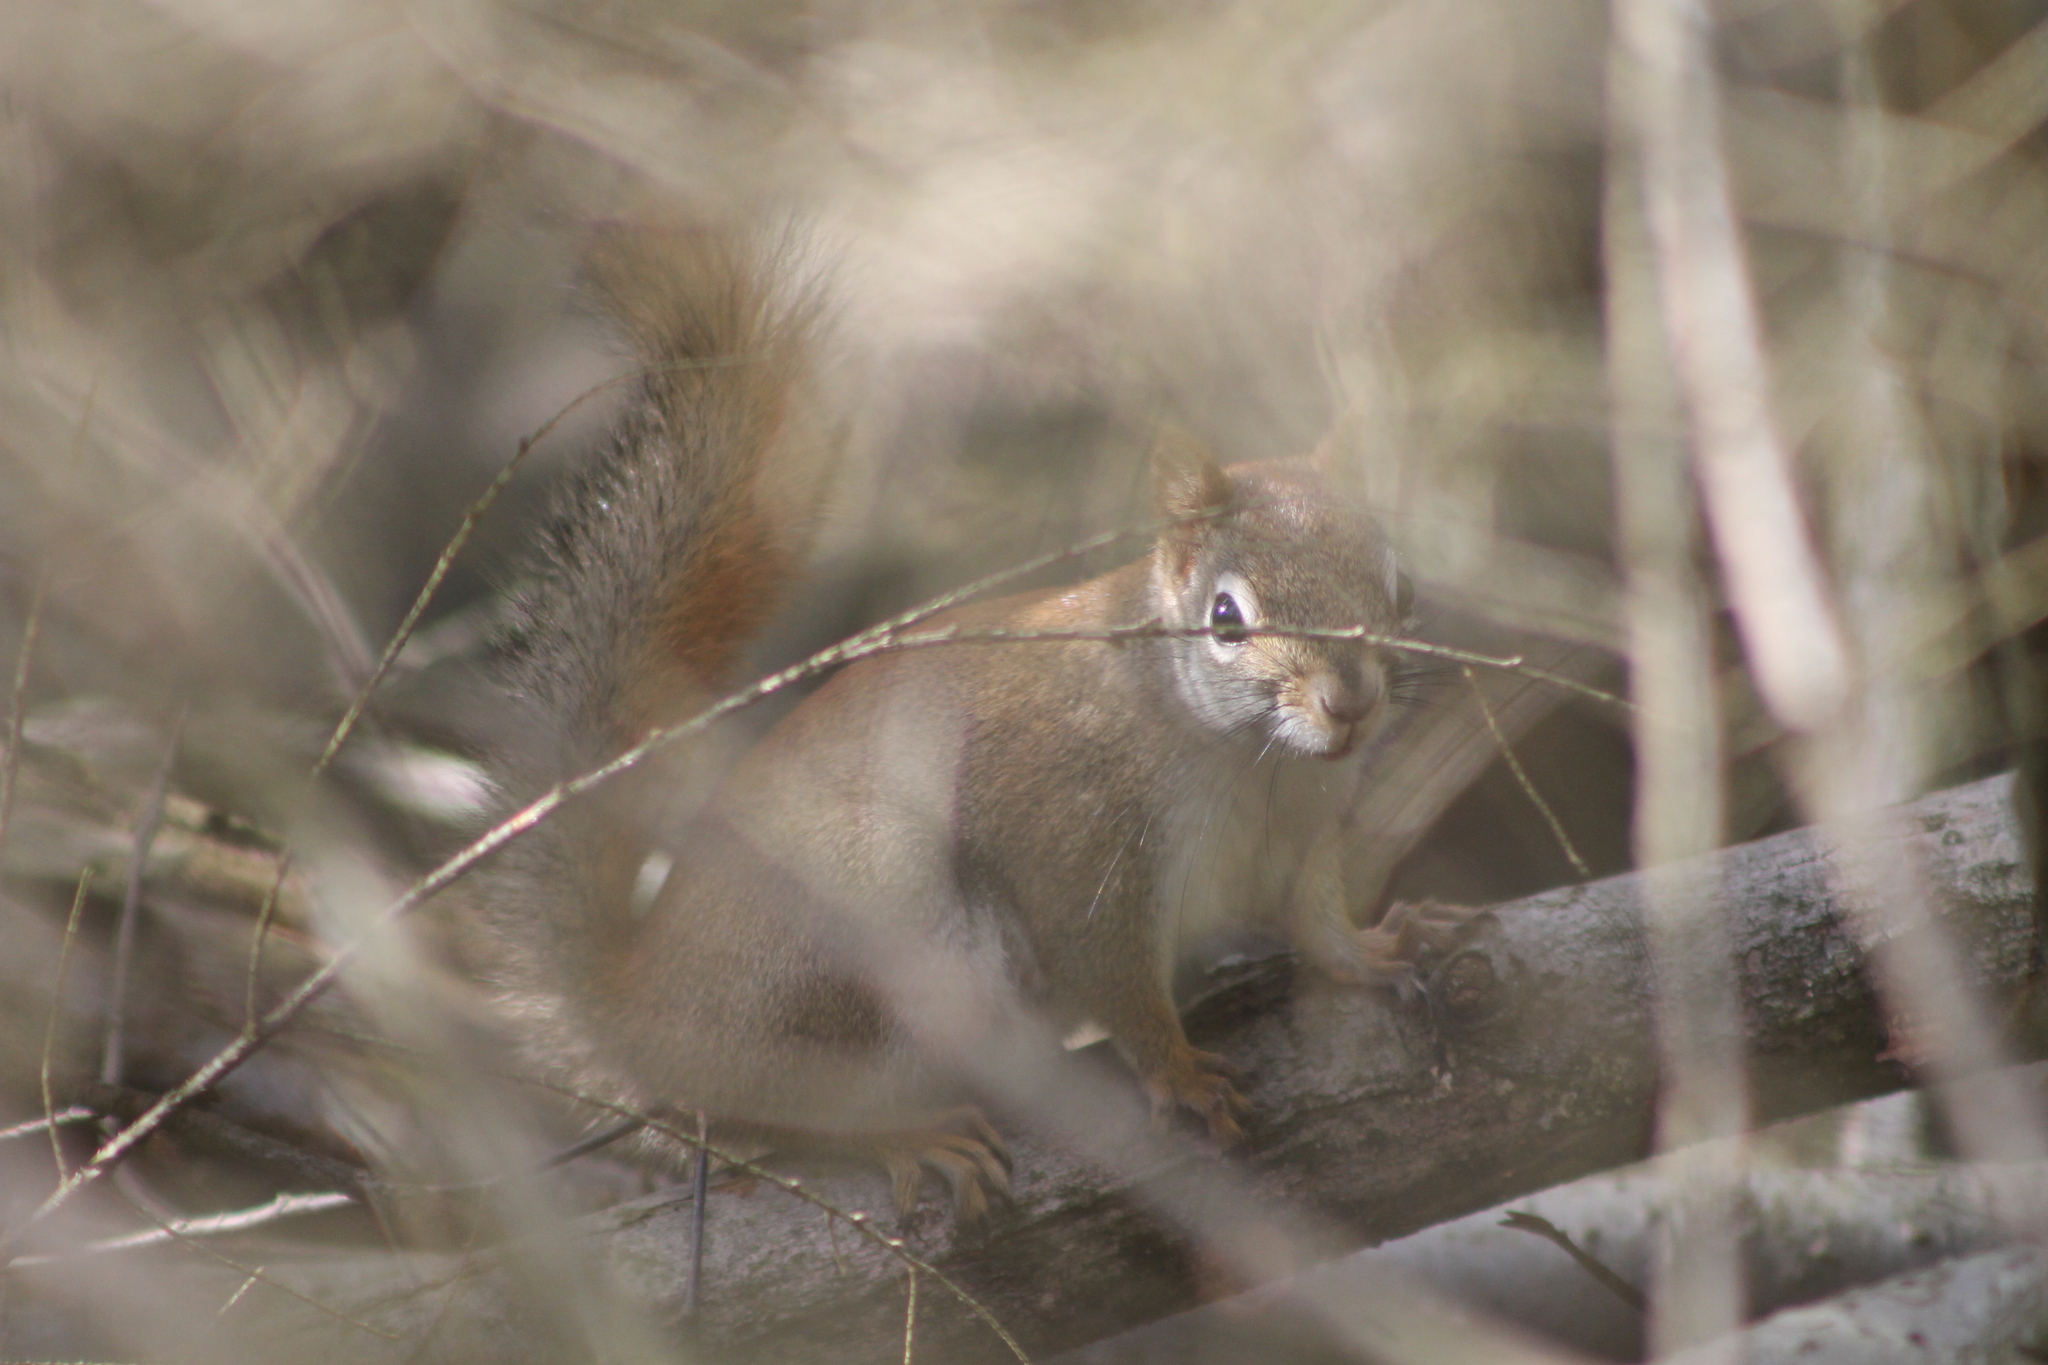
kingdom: Animalia
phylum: Chordata
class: Mammalia
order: Rodentia
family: Sciuridae
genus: Tamiasciurus
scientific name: Tamiasciurus hudsonicus
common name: Red squirrel
